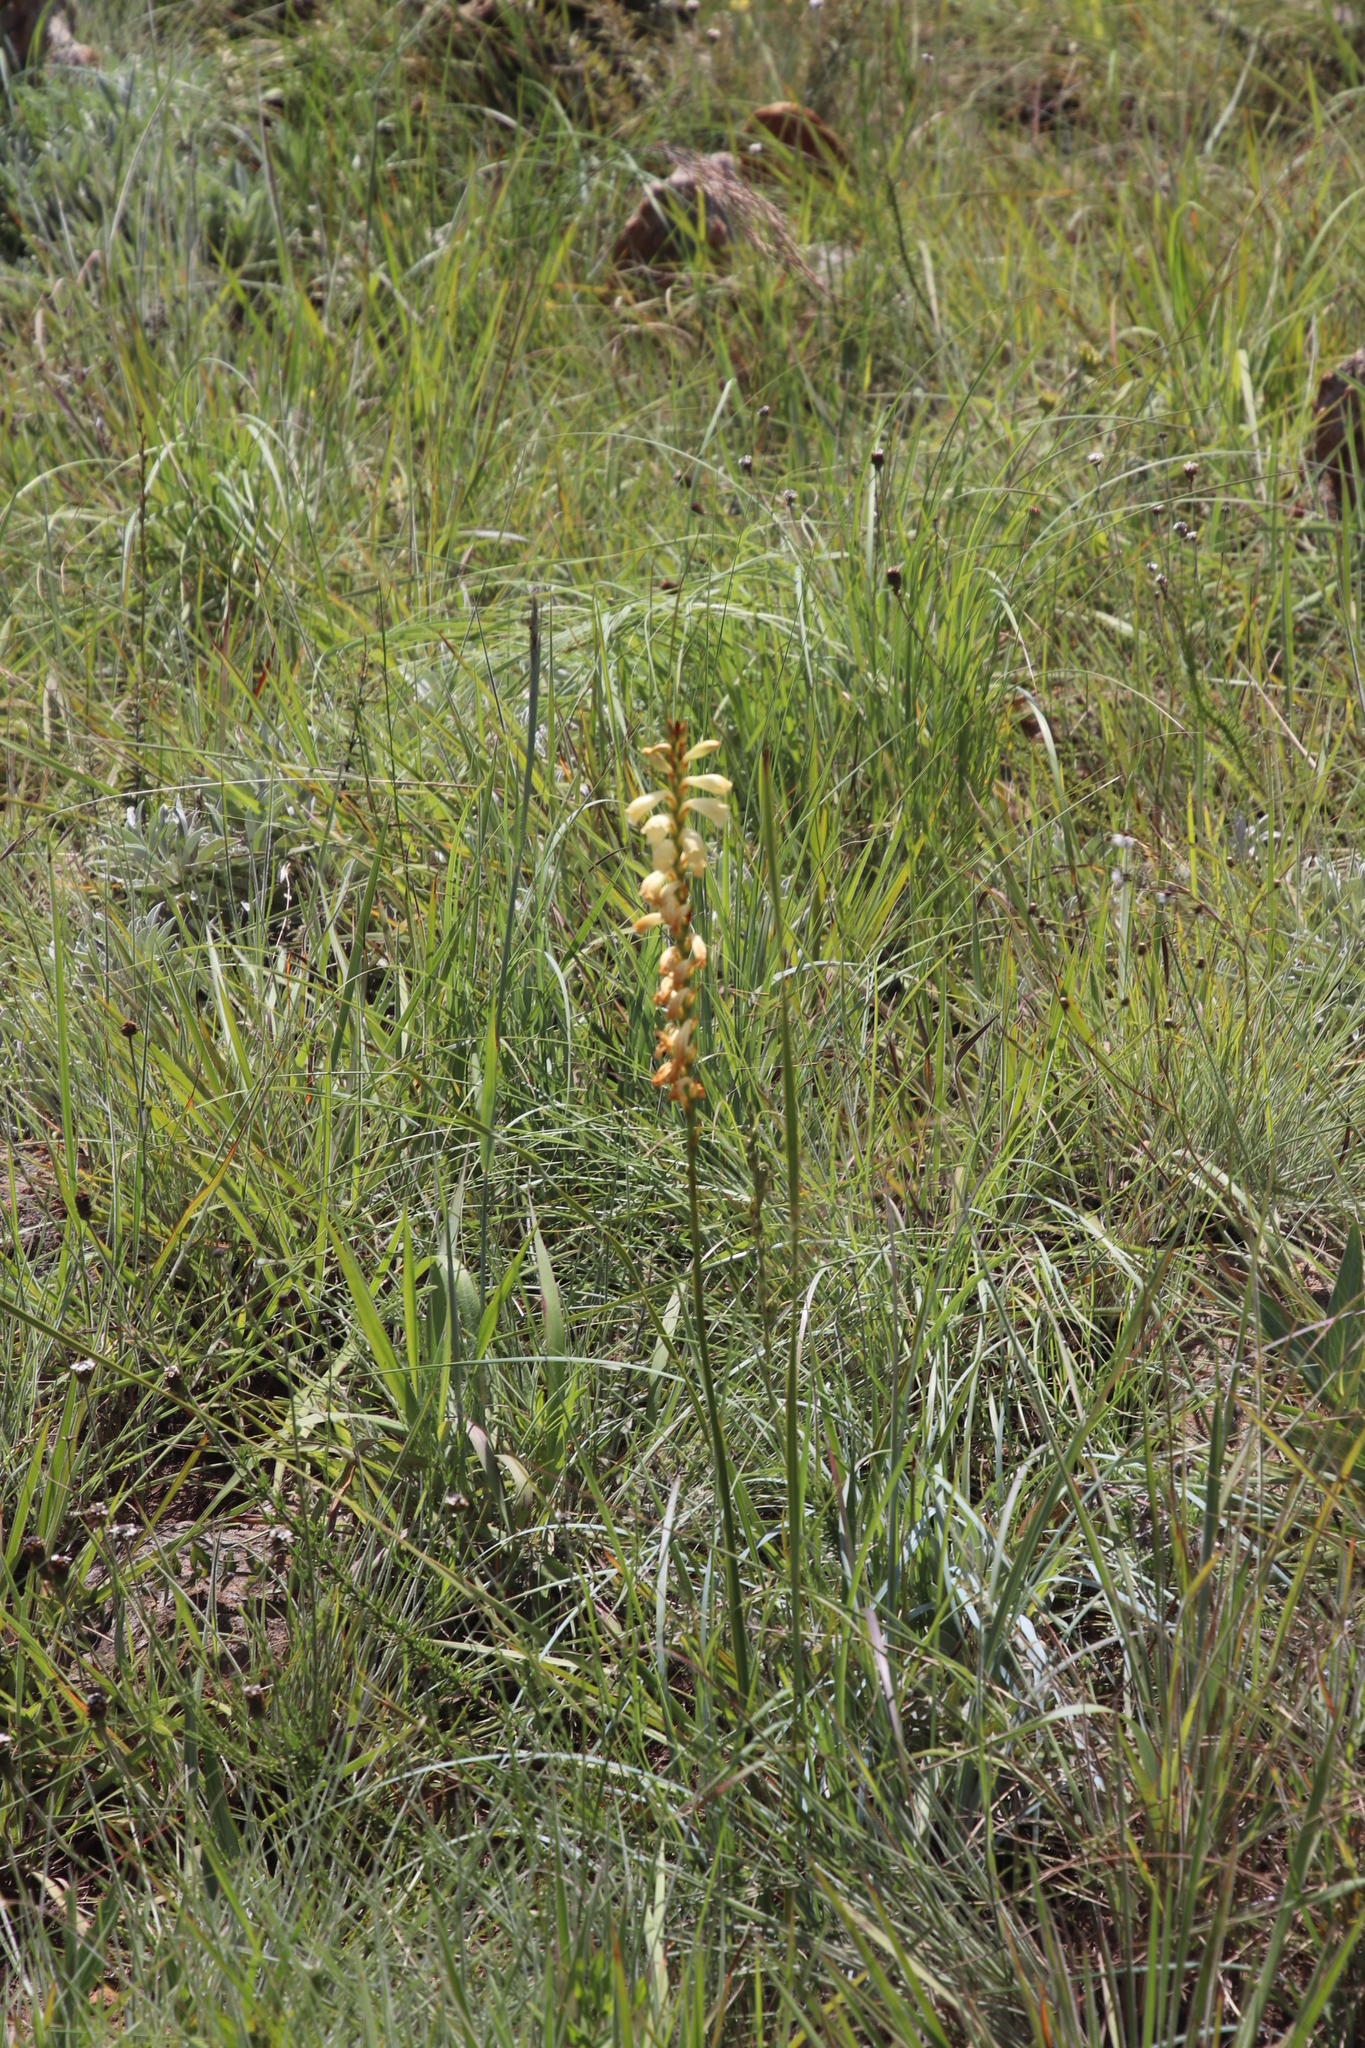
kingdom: Plantae
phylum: Tracheophyta
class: Liliopsida
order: Asparagales
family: Iridaceae
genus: Watsonia
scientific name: Watsonia watsonioides
